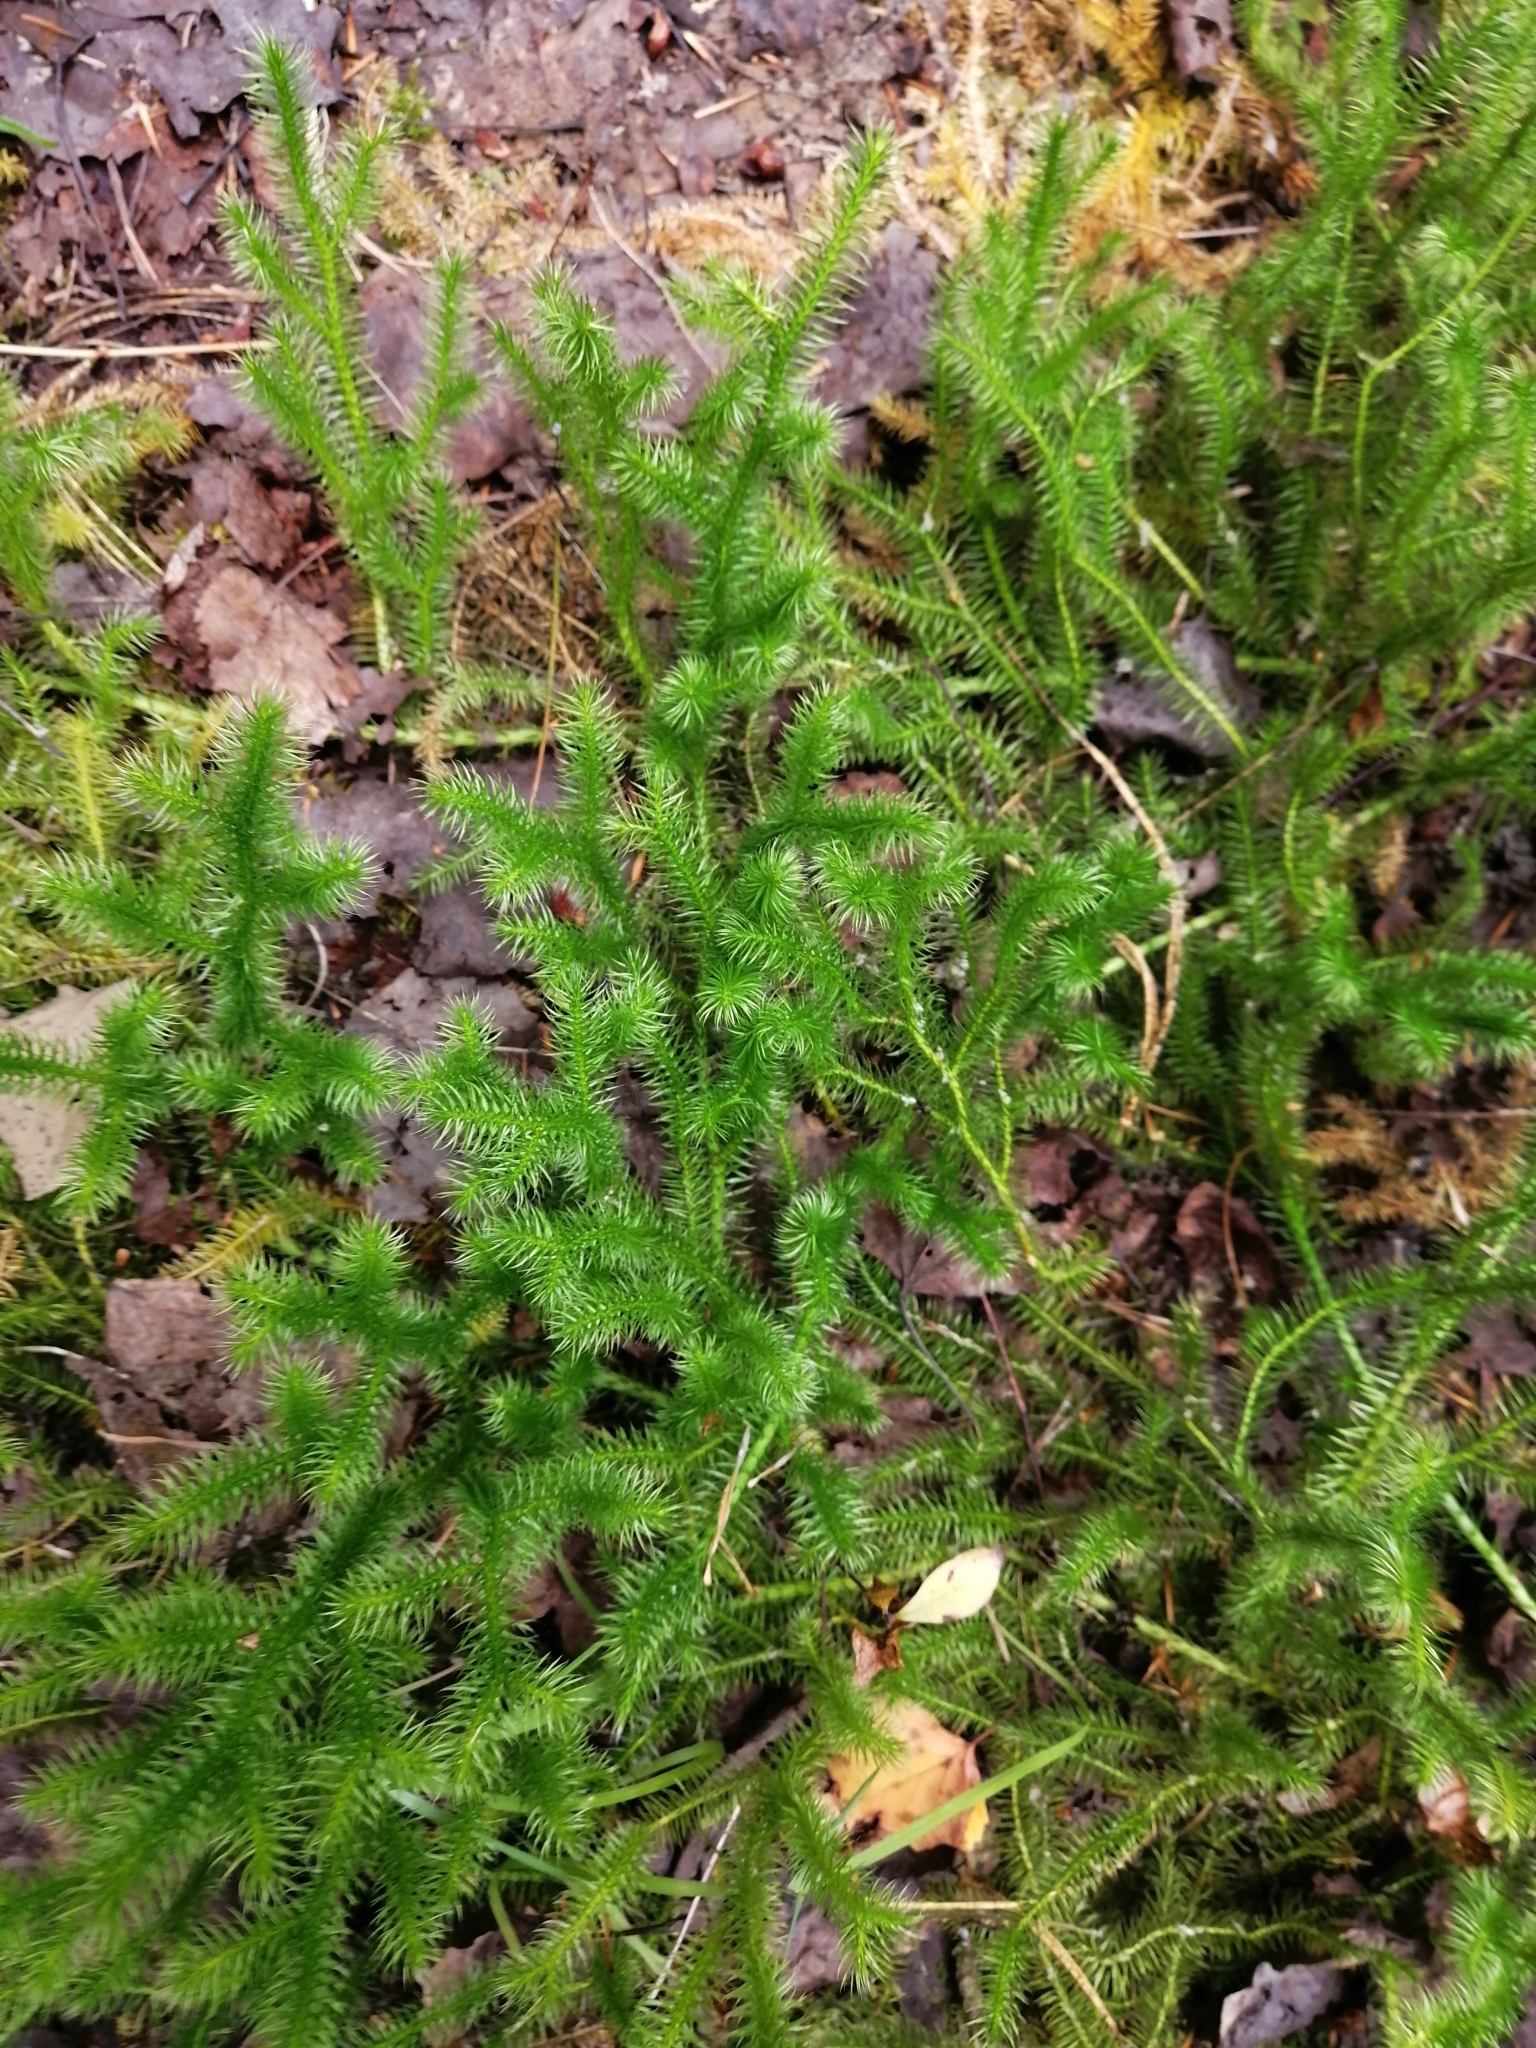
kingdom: Plantae
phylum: Tracheophyta
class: Lycopodiopsida
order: Lycopodiales
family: Lycopodiaceae
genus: Lycopodium
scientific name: Lycopodium clavatum
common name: Stag's-horn clubmoss
